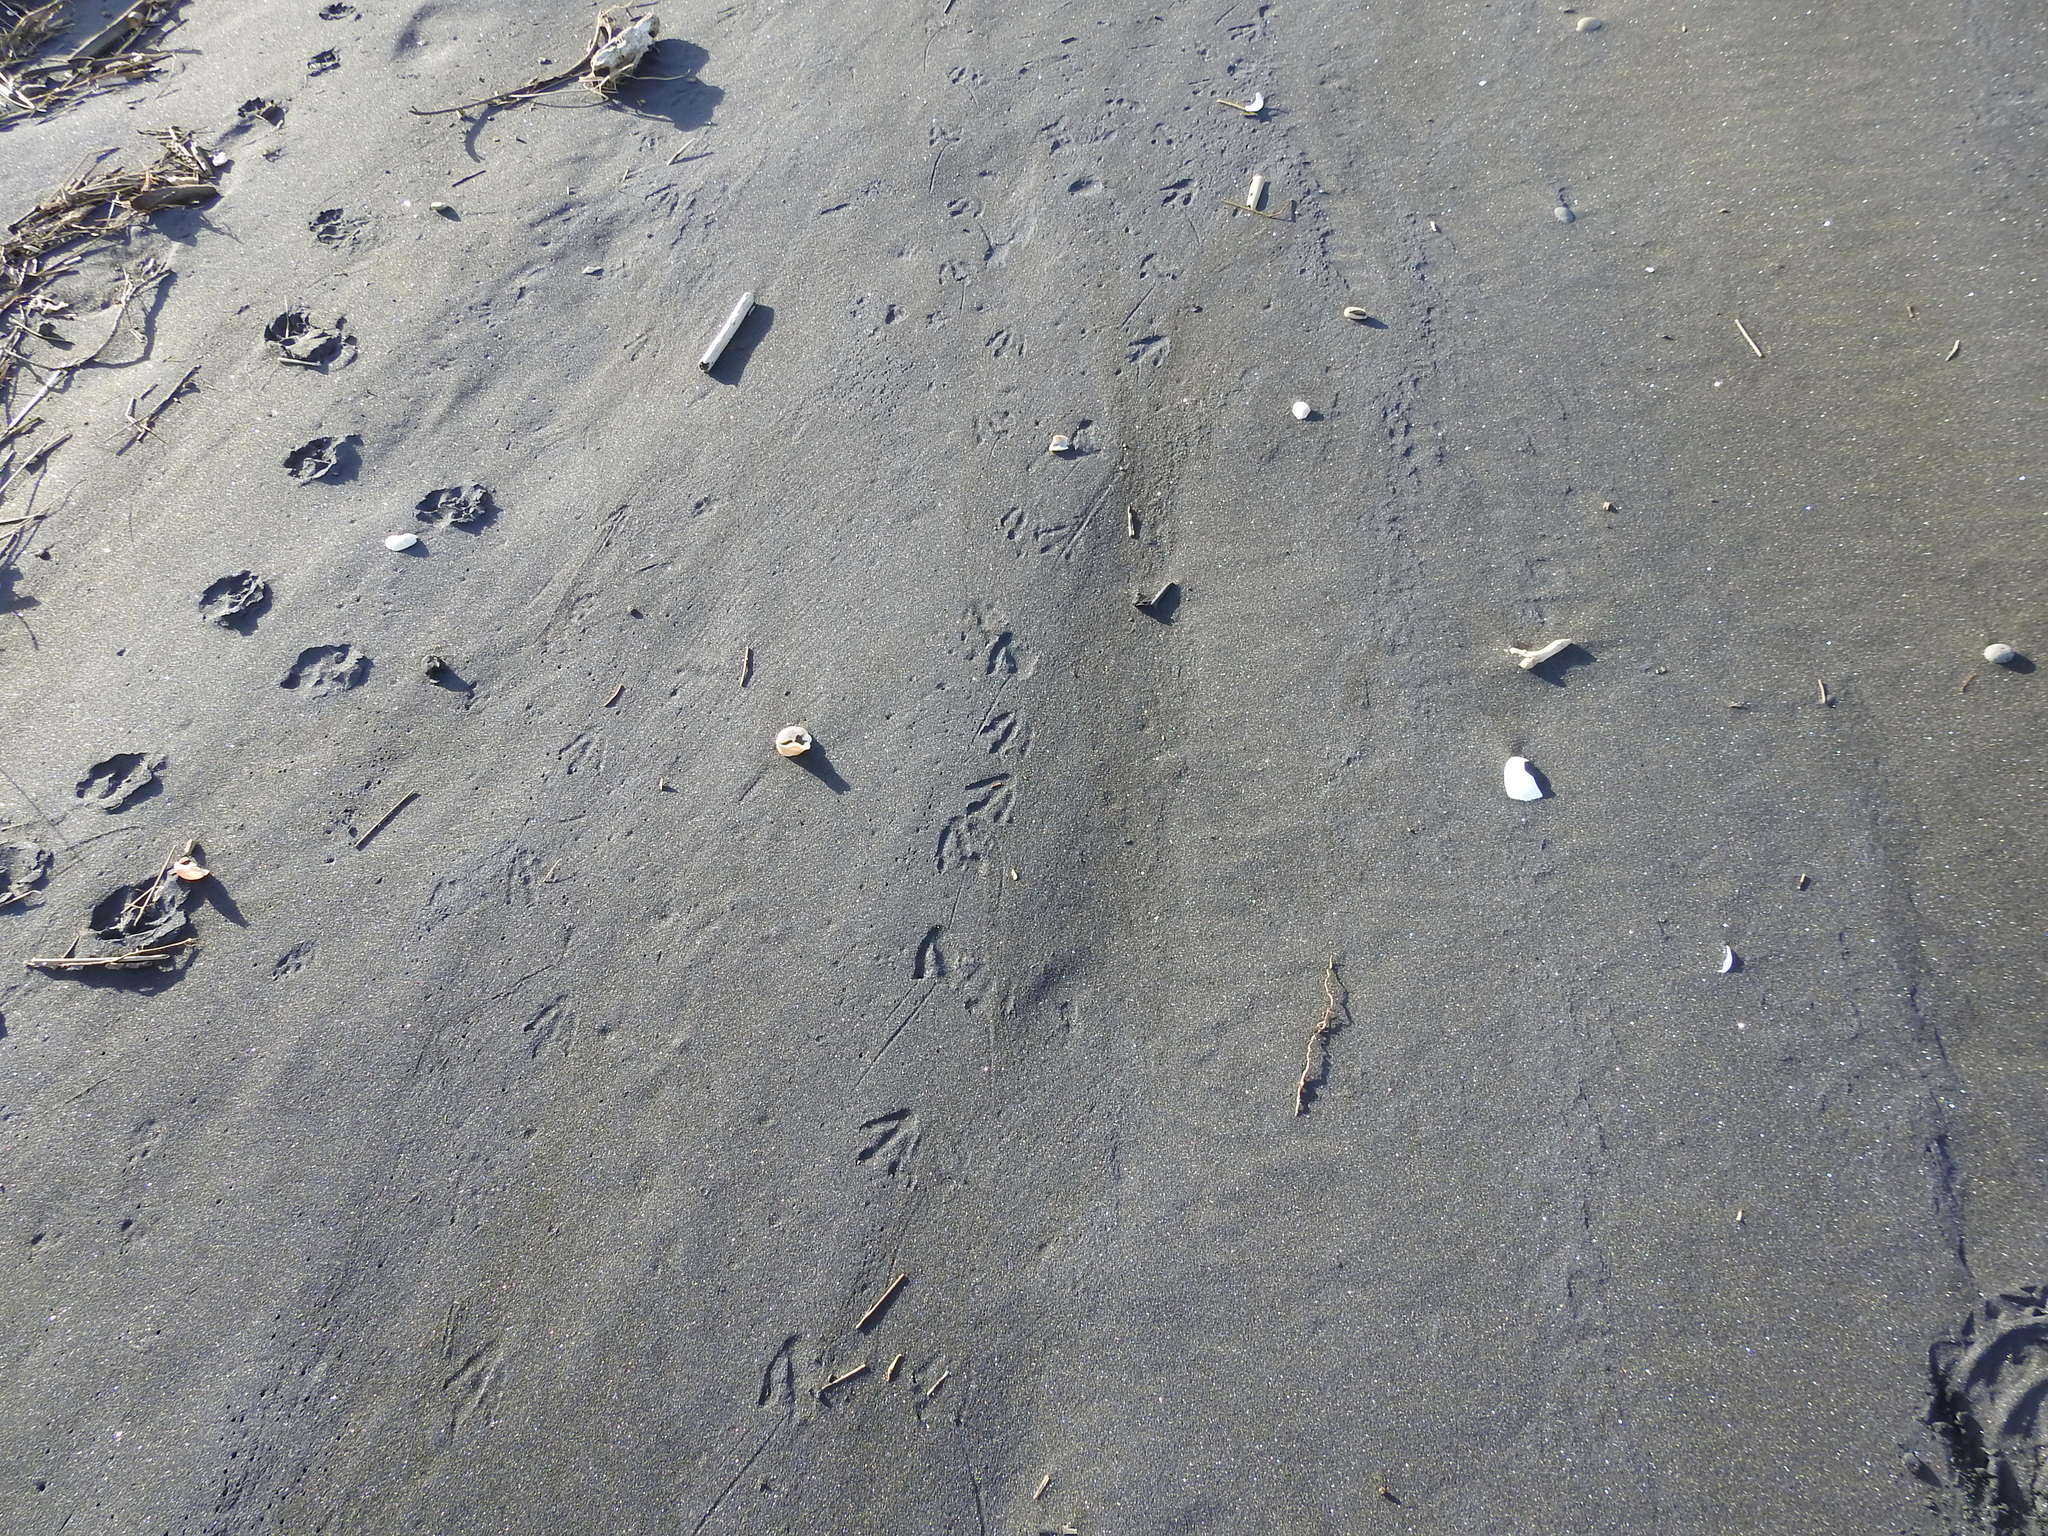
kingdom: Animalia
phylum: Chordata
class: Aves
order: Sphenisciformes
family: Spheniscidae
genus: Eudyptula
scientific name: Eudyptula minor
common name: Little penguin
